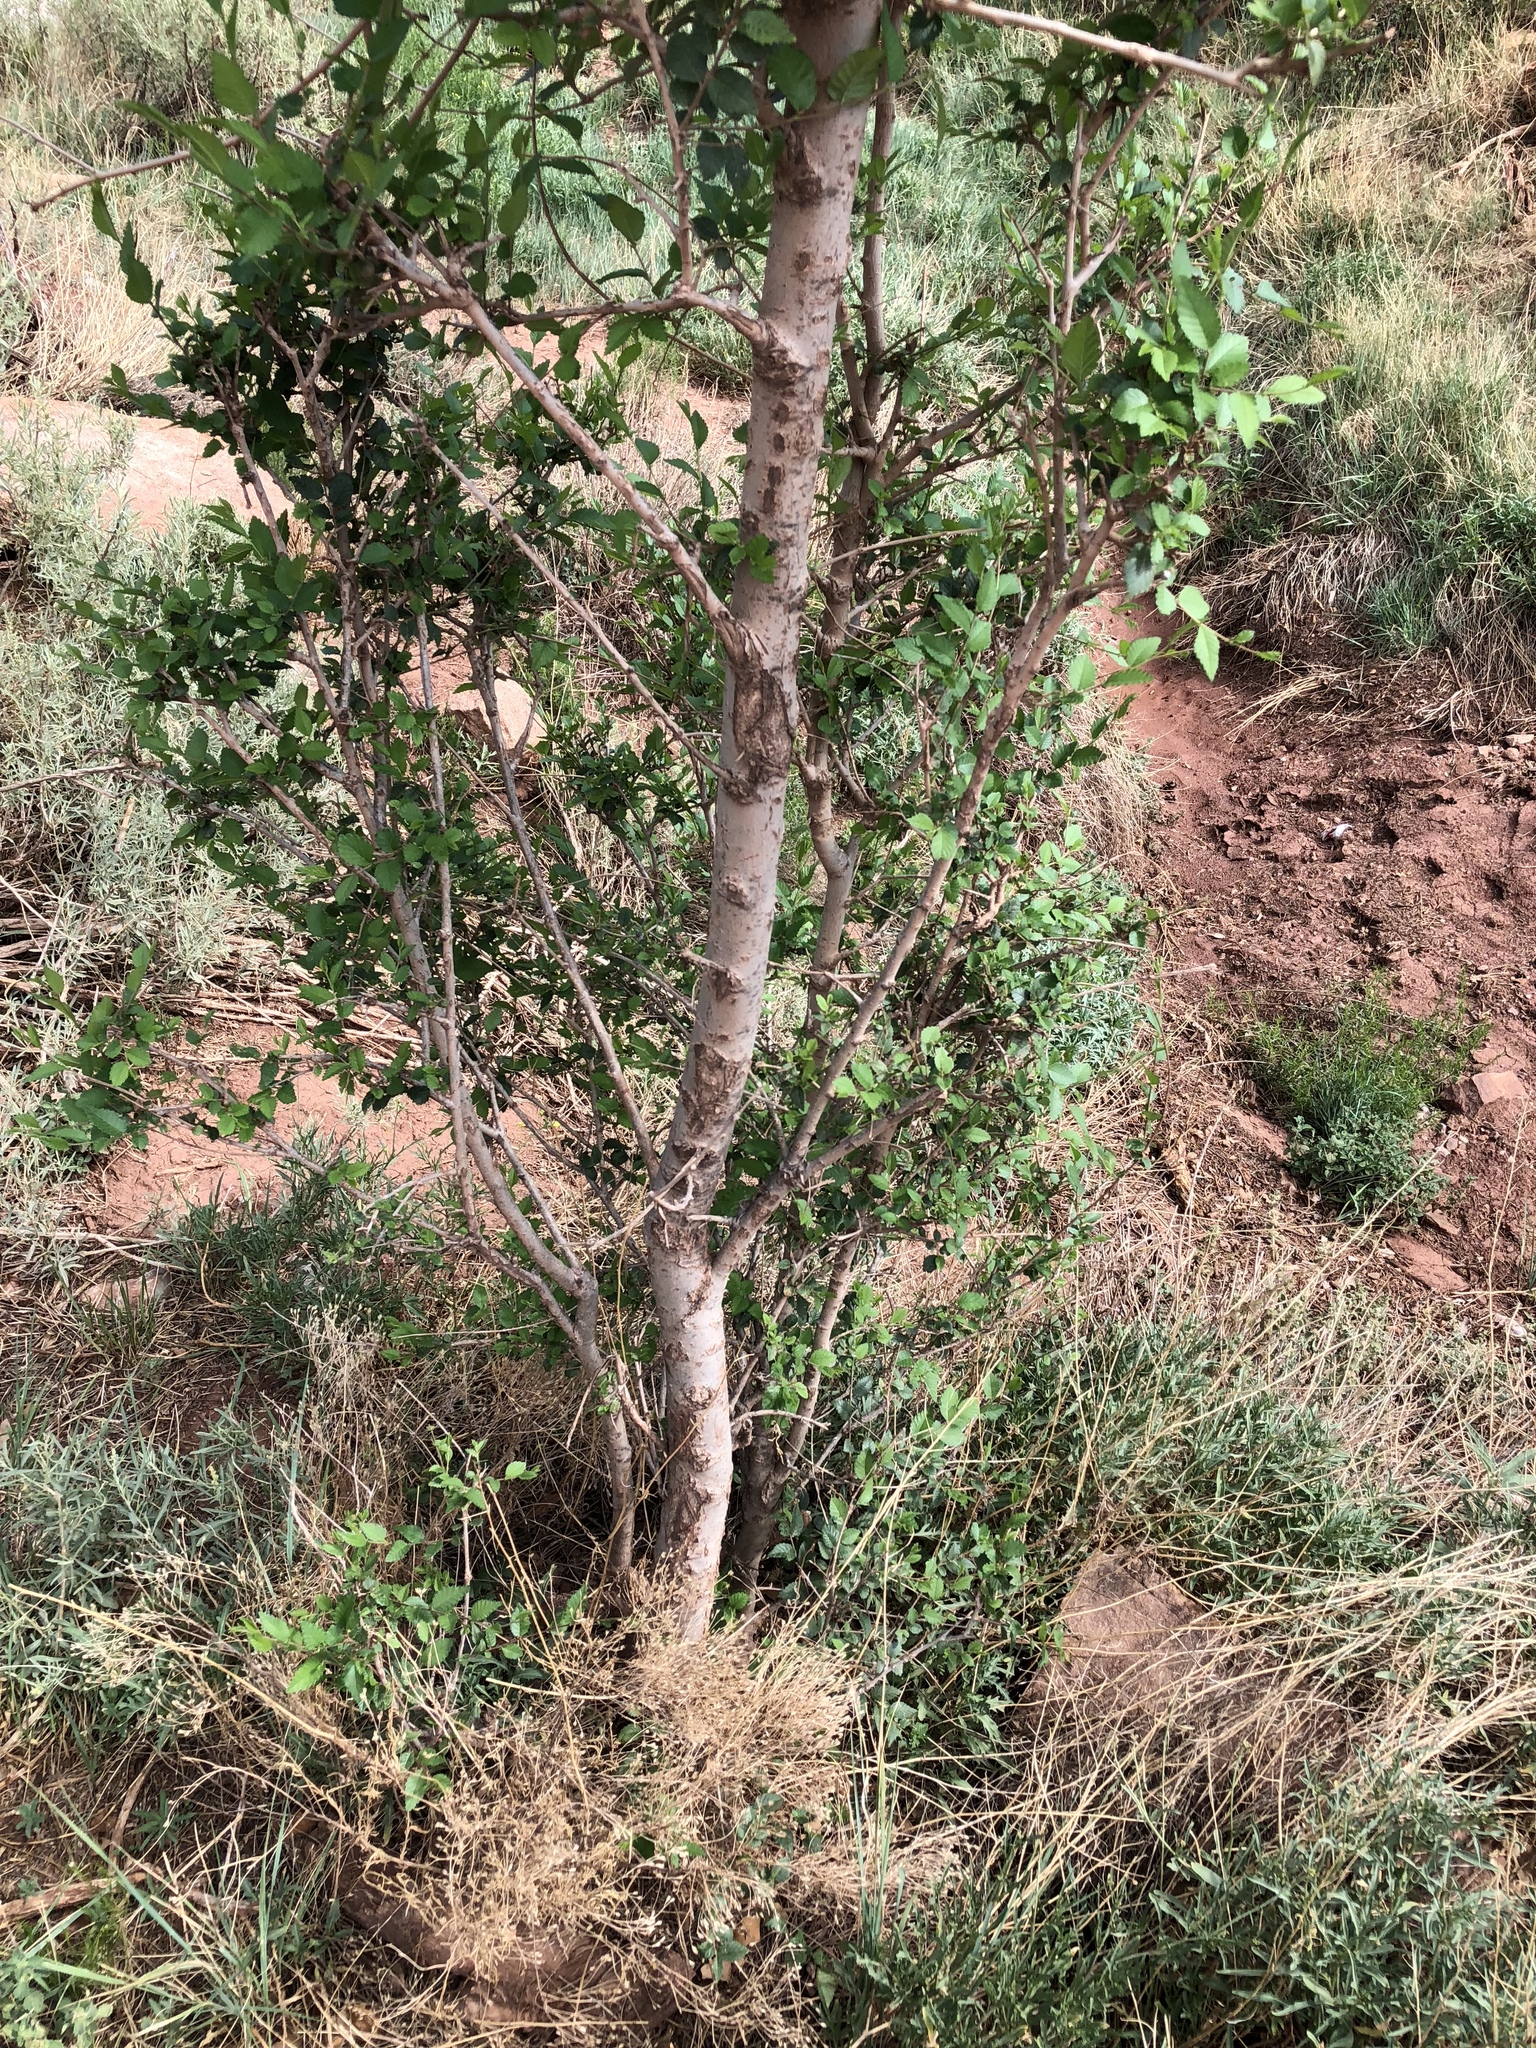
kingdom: Plantae
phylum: Tracheophyta
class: Magnoliopsida
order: Rosales
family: Ulmaceae
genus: Ulmus
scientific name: Ulmus pumila
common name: Siberian elm
